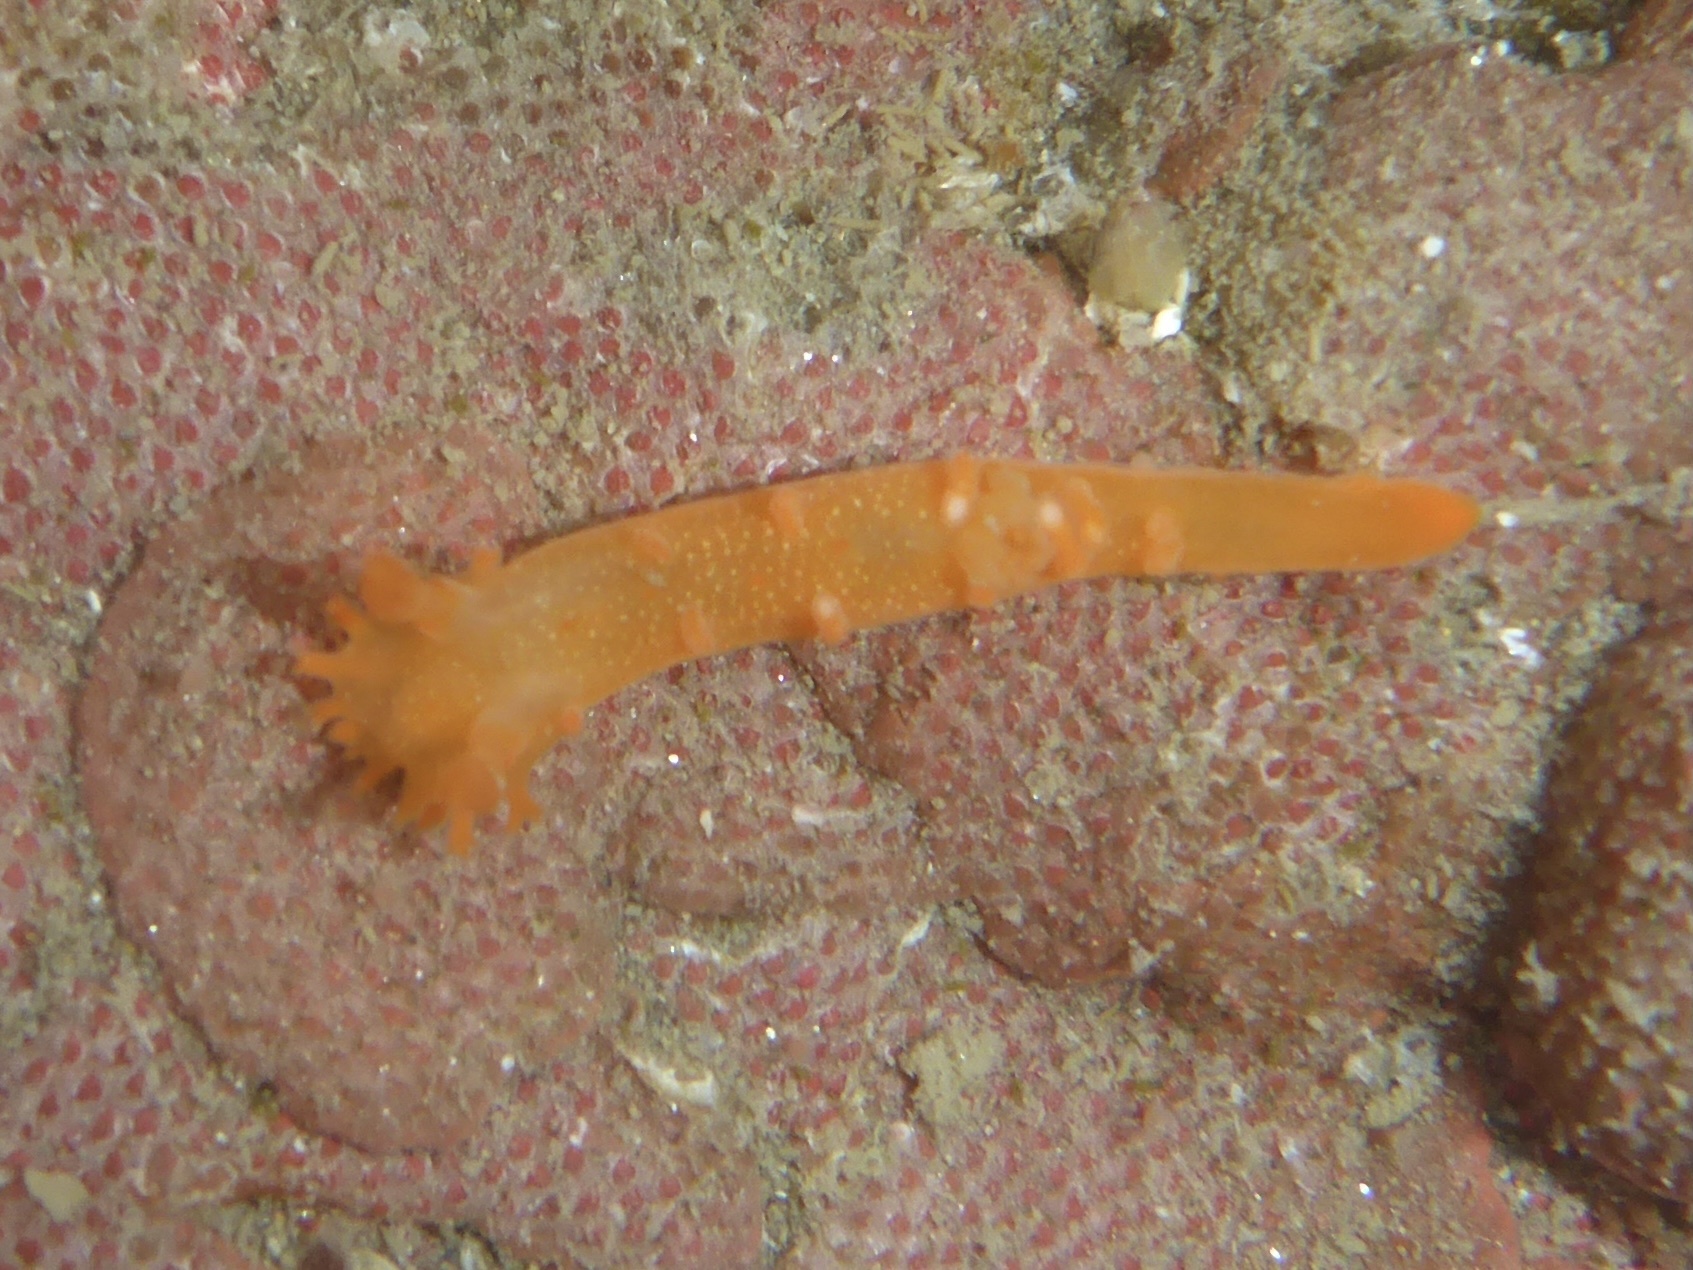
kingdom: Animalia
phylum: Mollusca
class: Gastropoda
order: Nudibranchia
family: Polyceridae
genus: Triopha
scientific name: Triopha maculata
